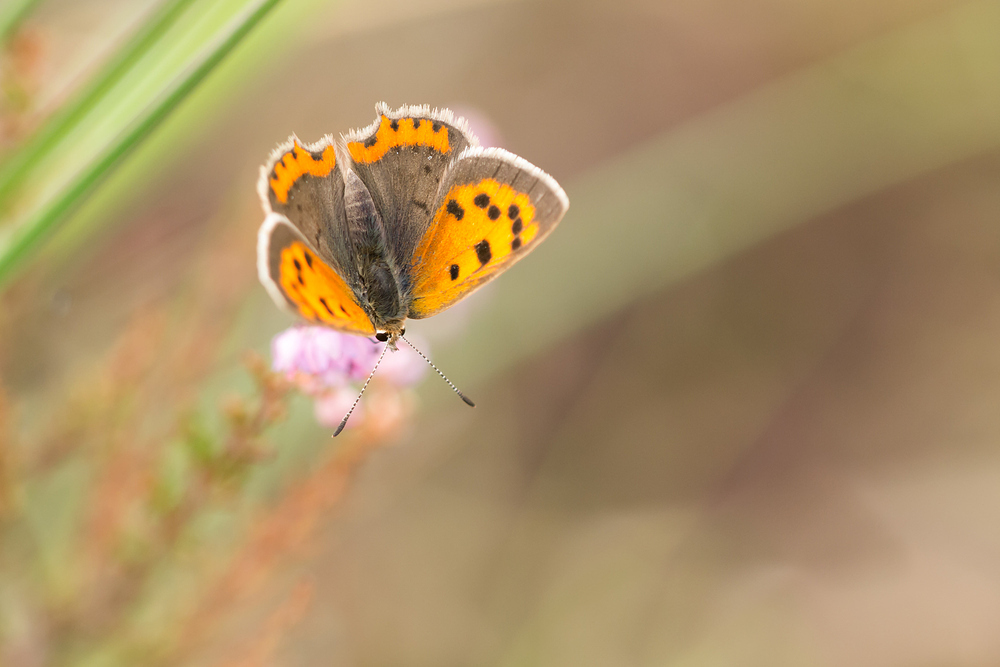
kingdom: Animalia
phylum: Arthropoda
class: Insecta
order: Lepidoptera
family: Lycaenidae
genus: Lycaena
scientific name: Lycaena phlaeas
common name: Small copper
